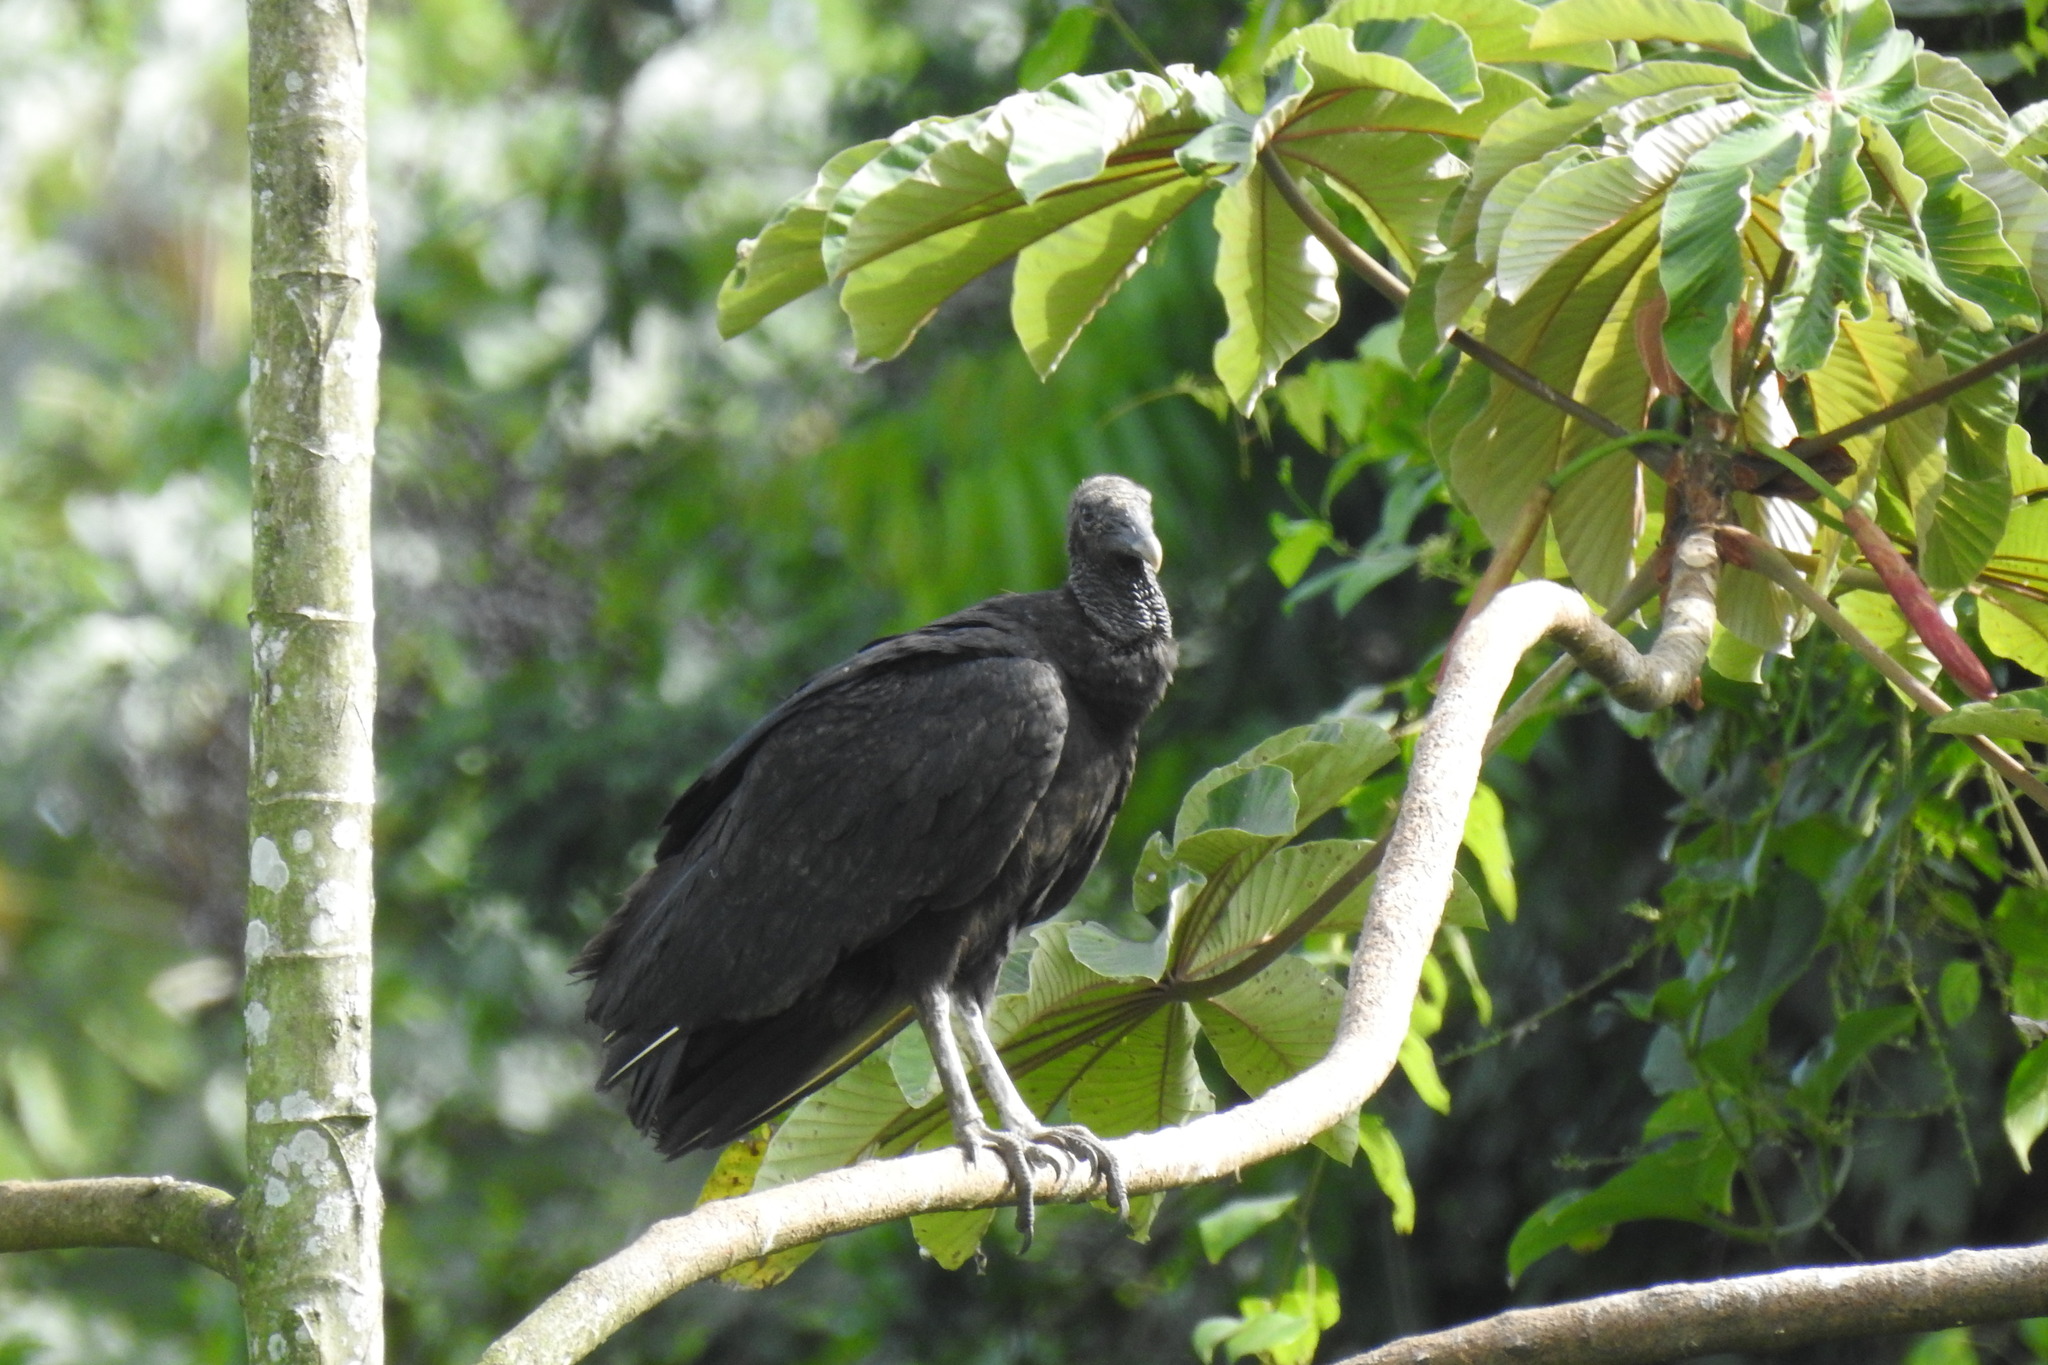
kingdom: Animalia
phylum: Chordata
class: Aves
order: Accipitriformes
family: Cathartidae
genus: Coragyps
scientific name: Coragyps atratus
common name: Black vulture
